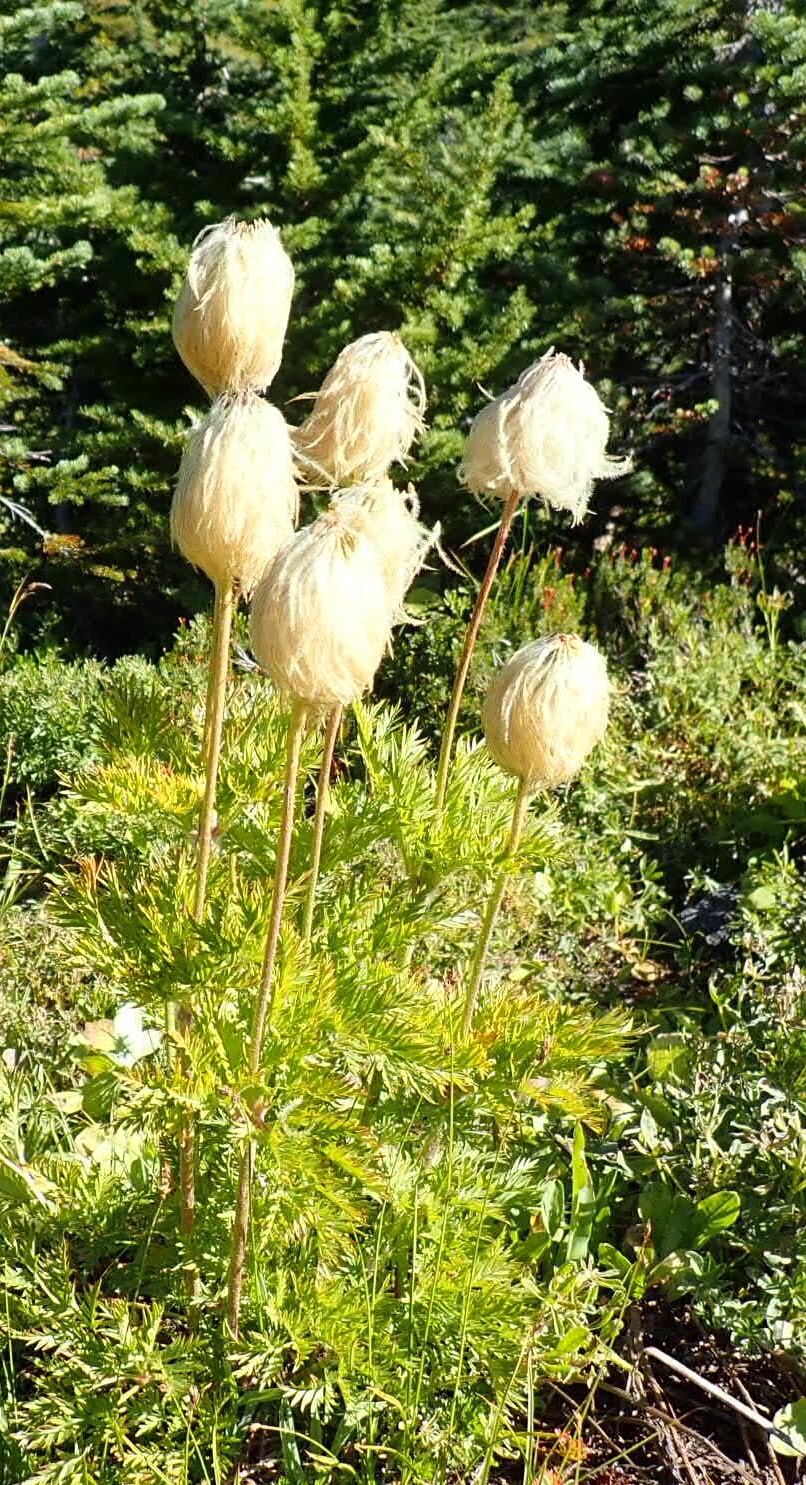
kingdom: Plantae
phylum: Tracheophyta
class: Magnoliopsida
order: Ranunculales
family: Ranunculaceae
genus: Pulsatilla
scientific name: Pulsatilla occidentalis
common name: Mountain pasqueflower
